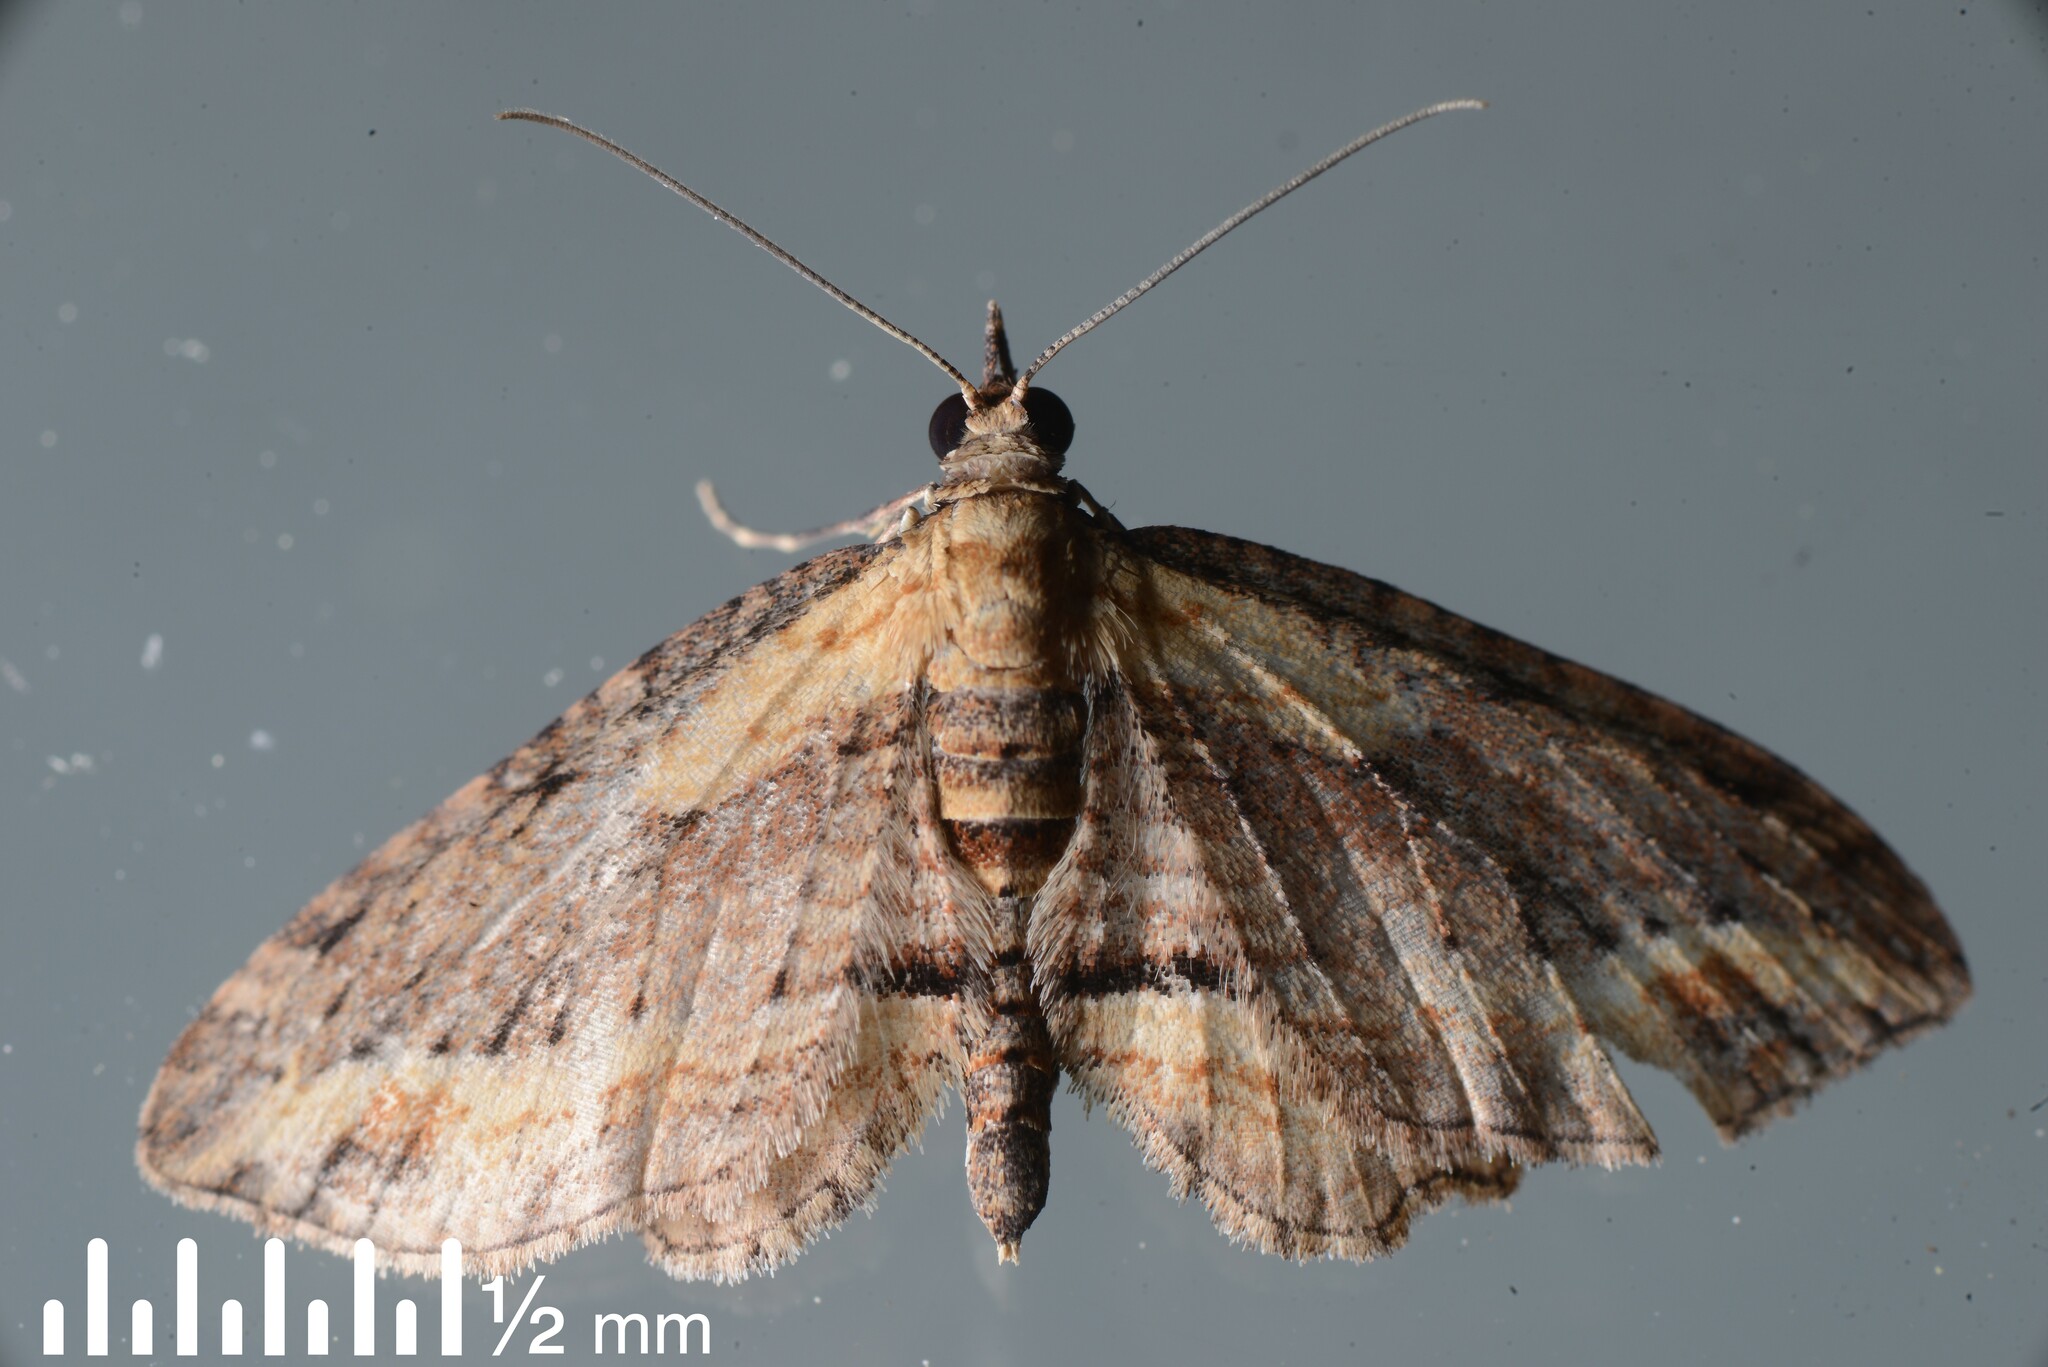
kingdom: Animalia
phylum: Arthropoda
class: Insecta
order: Lepidoptera
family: Geometridae
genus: Chloroclystis
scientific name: Chloroclystis filata
